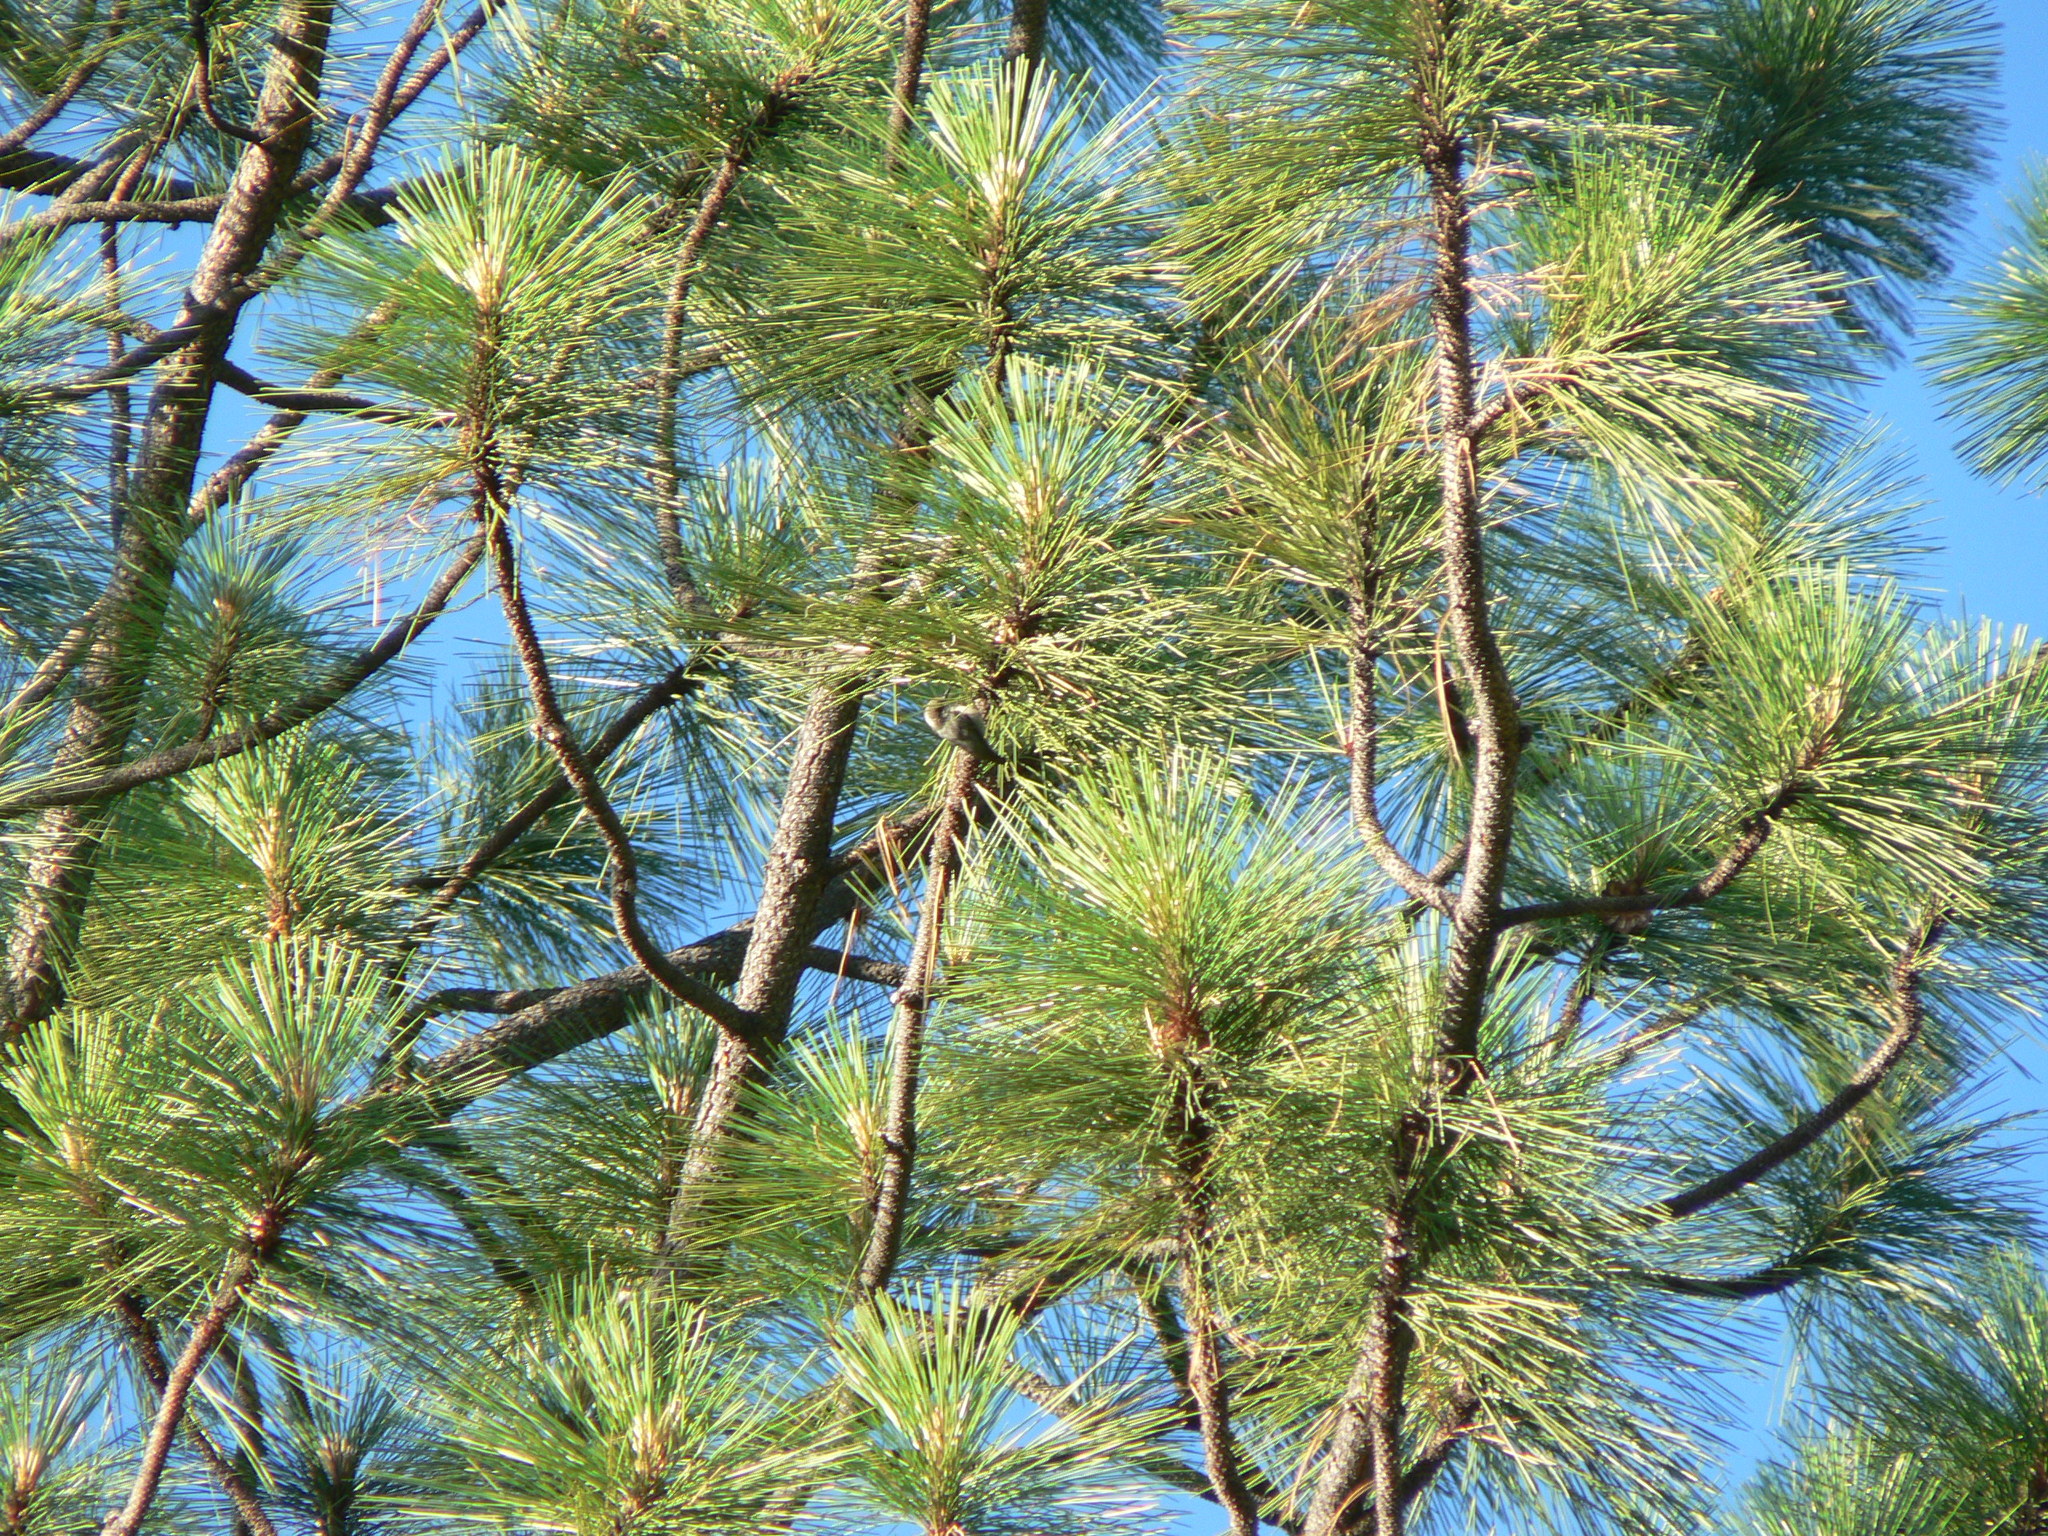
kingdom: Animalia
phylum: Chordata
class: Aves
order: Passeriformes
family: Sittidae
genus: Sitta
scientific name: Sitta pygmaea
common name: Pygmy nuthatch
